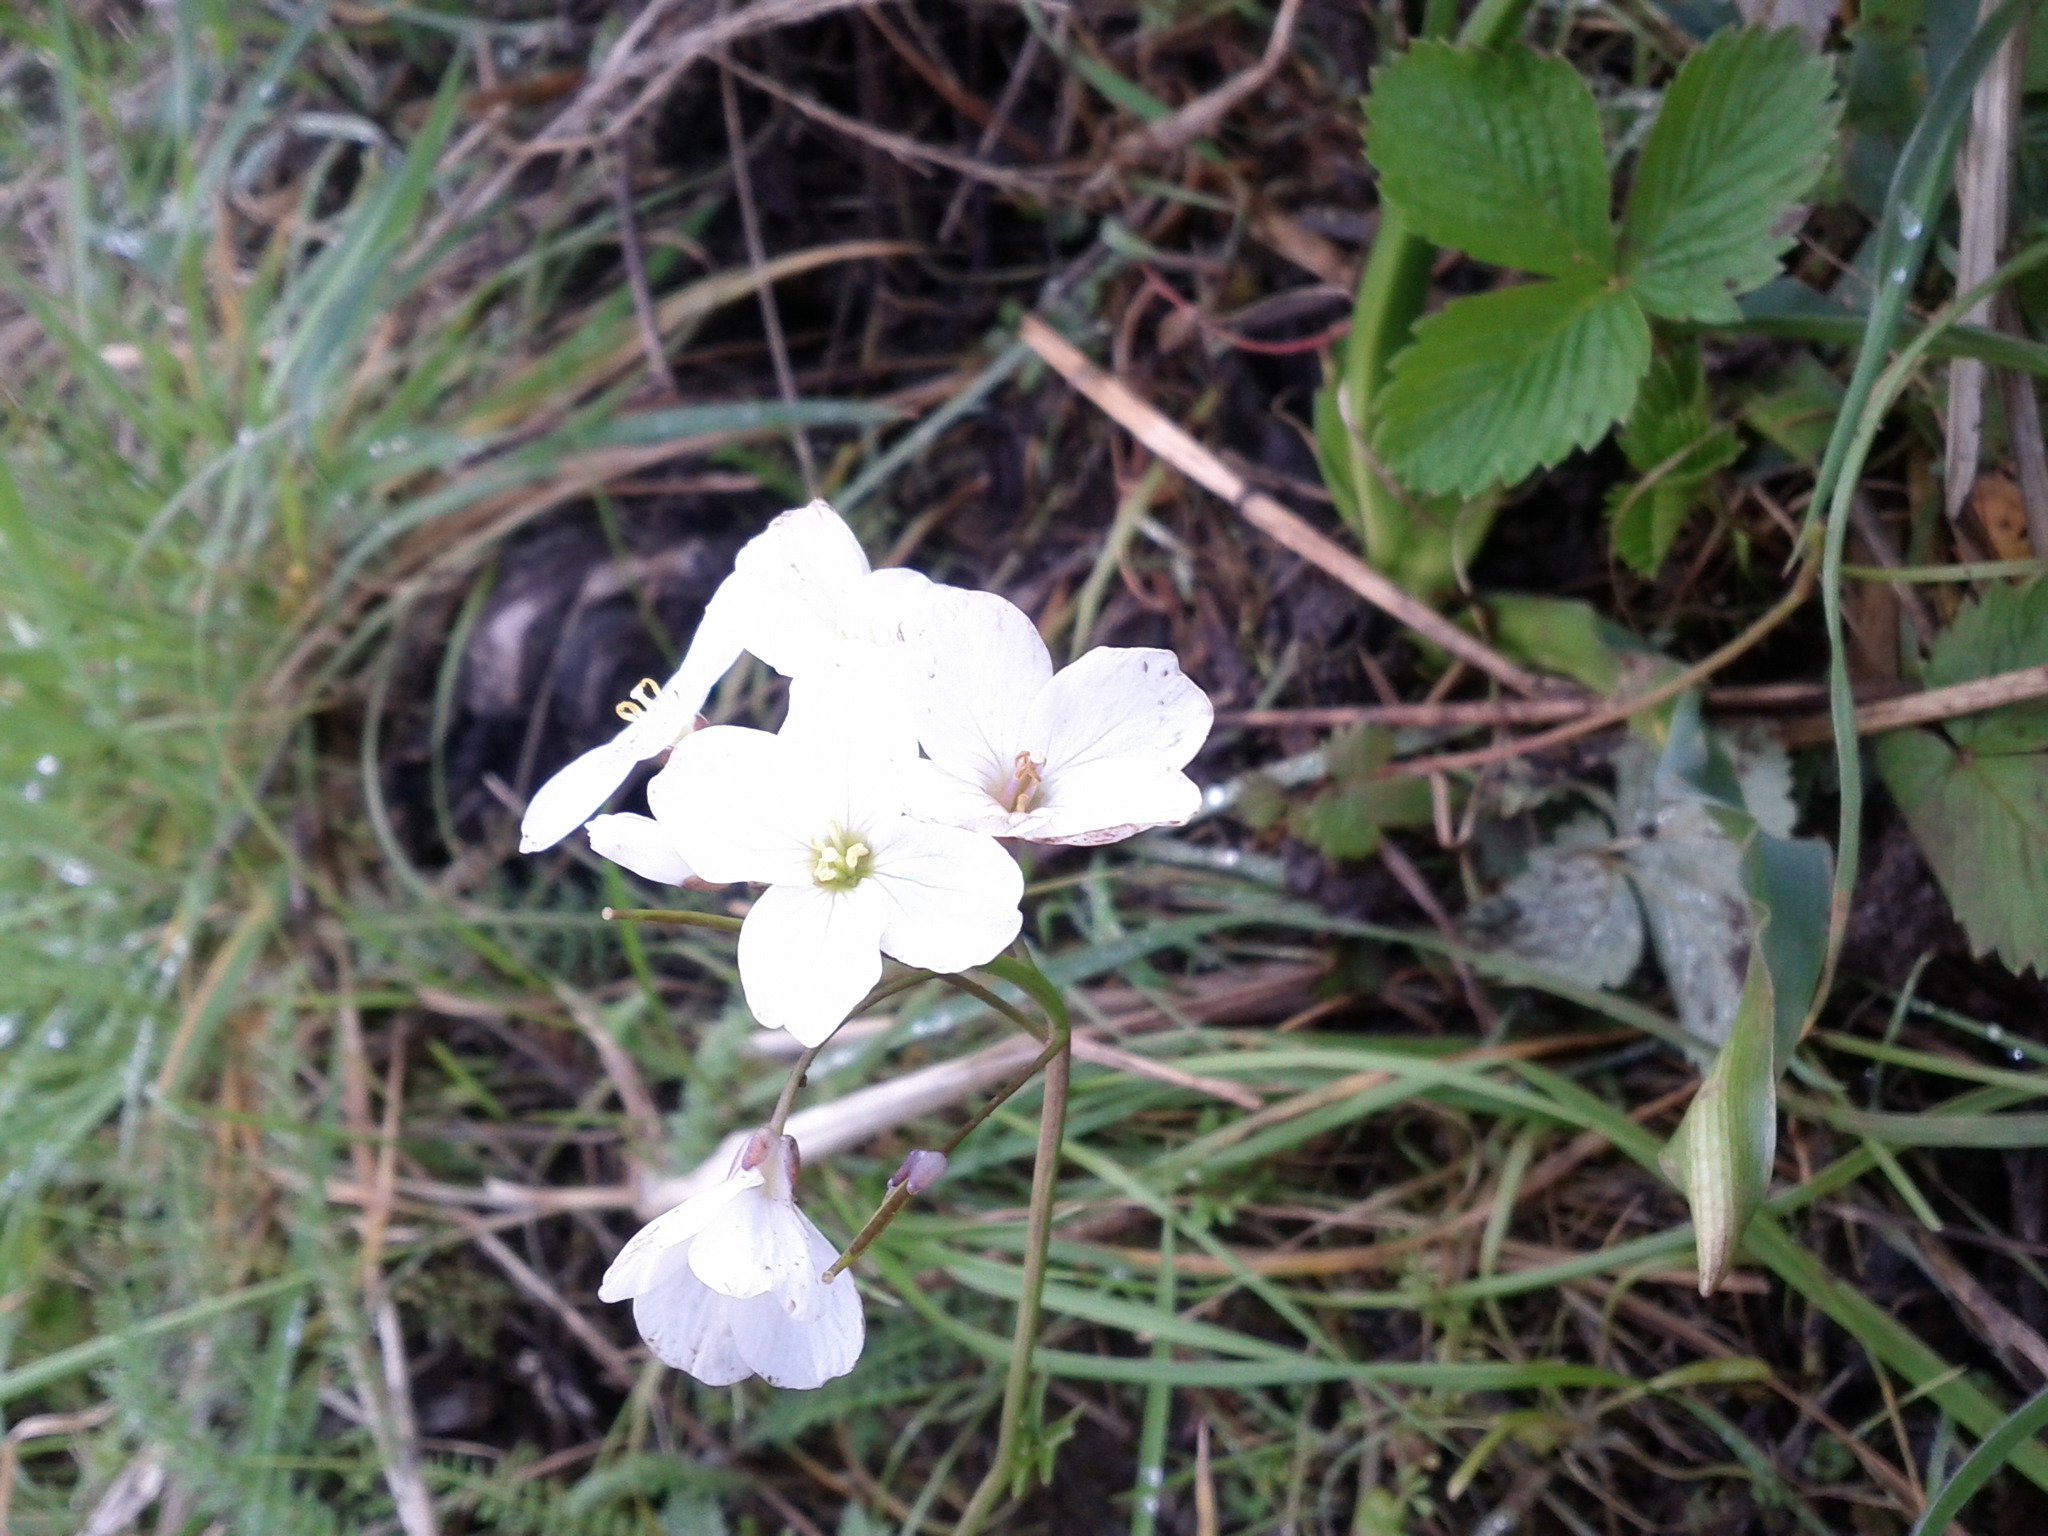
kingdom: Plantae
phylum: Tracheophyta
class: Magnoliopsida
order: Brassicales
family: Brassicaceae
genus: Cardamine
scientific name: Cardamine californica
